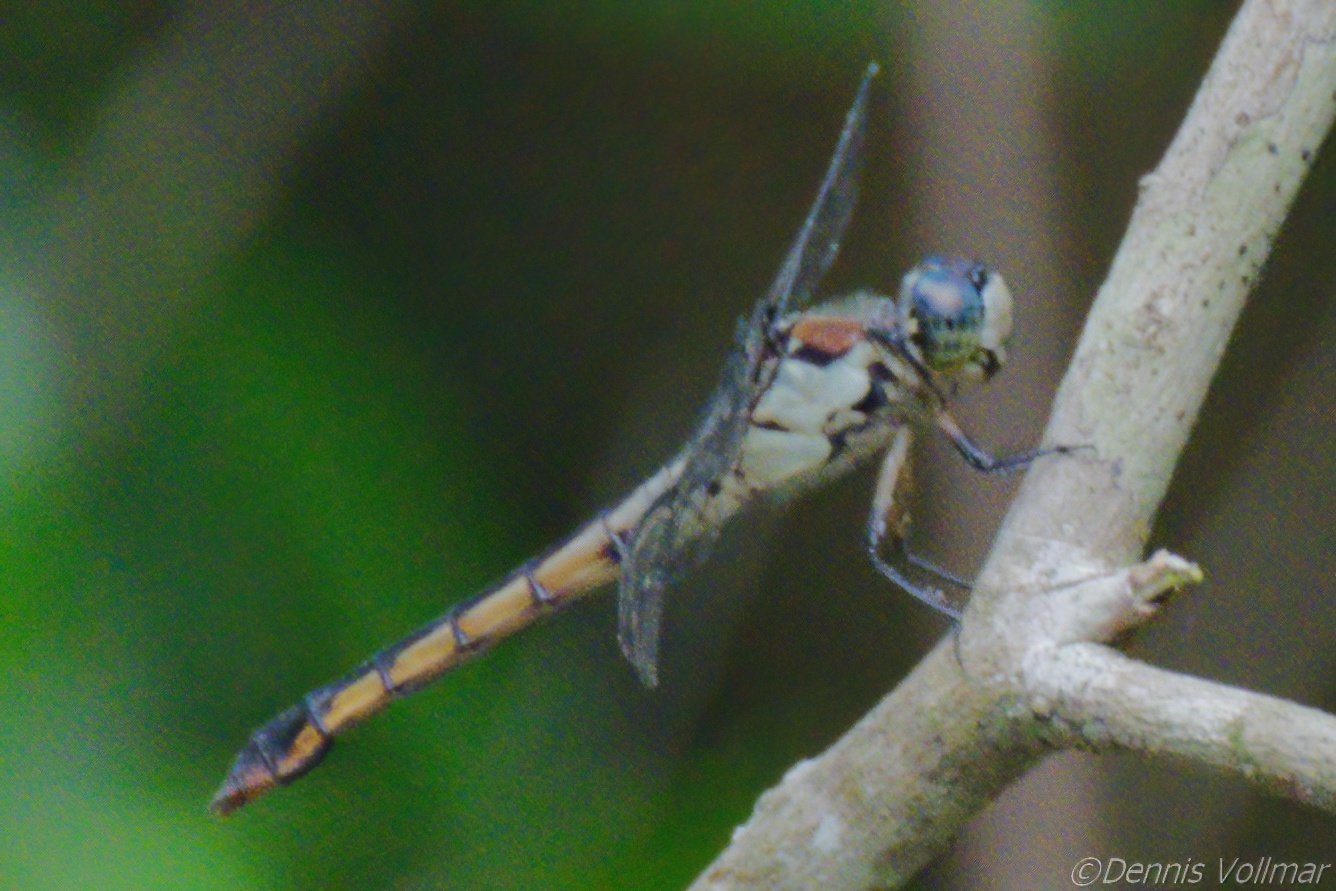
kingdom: Animalia
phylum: Arthropoda
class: Insecta
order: Odonata
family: Libellulidae
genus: Libellula
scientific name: Libellula vibrans
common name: Great blue skimmer
